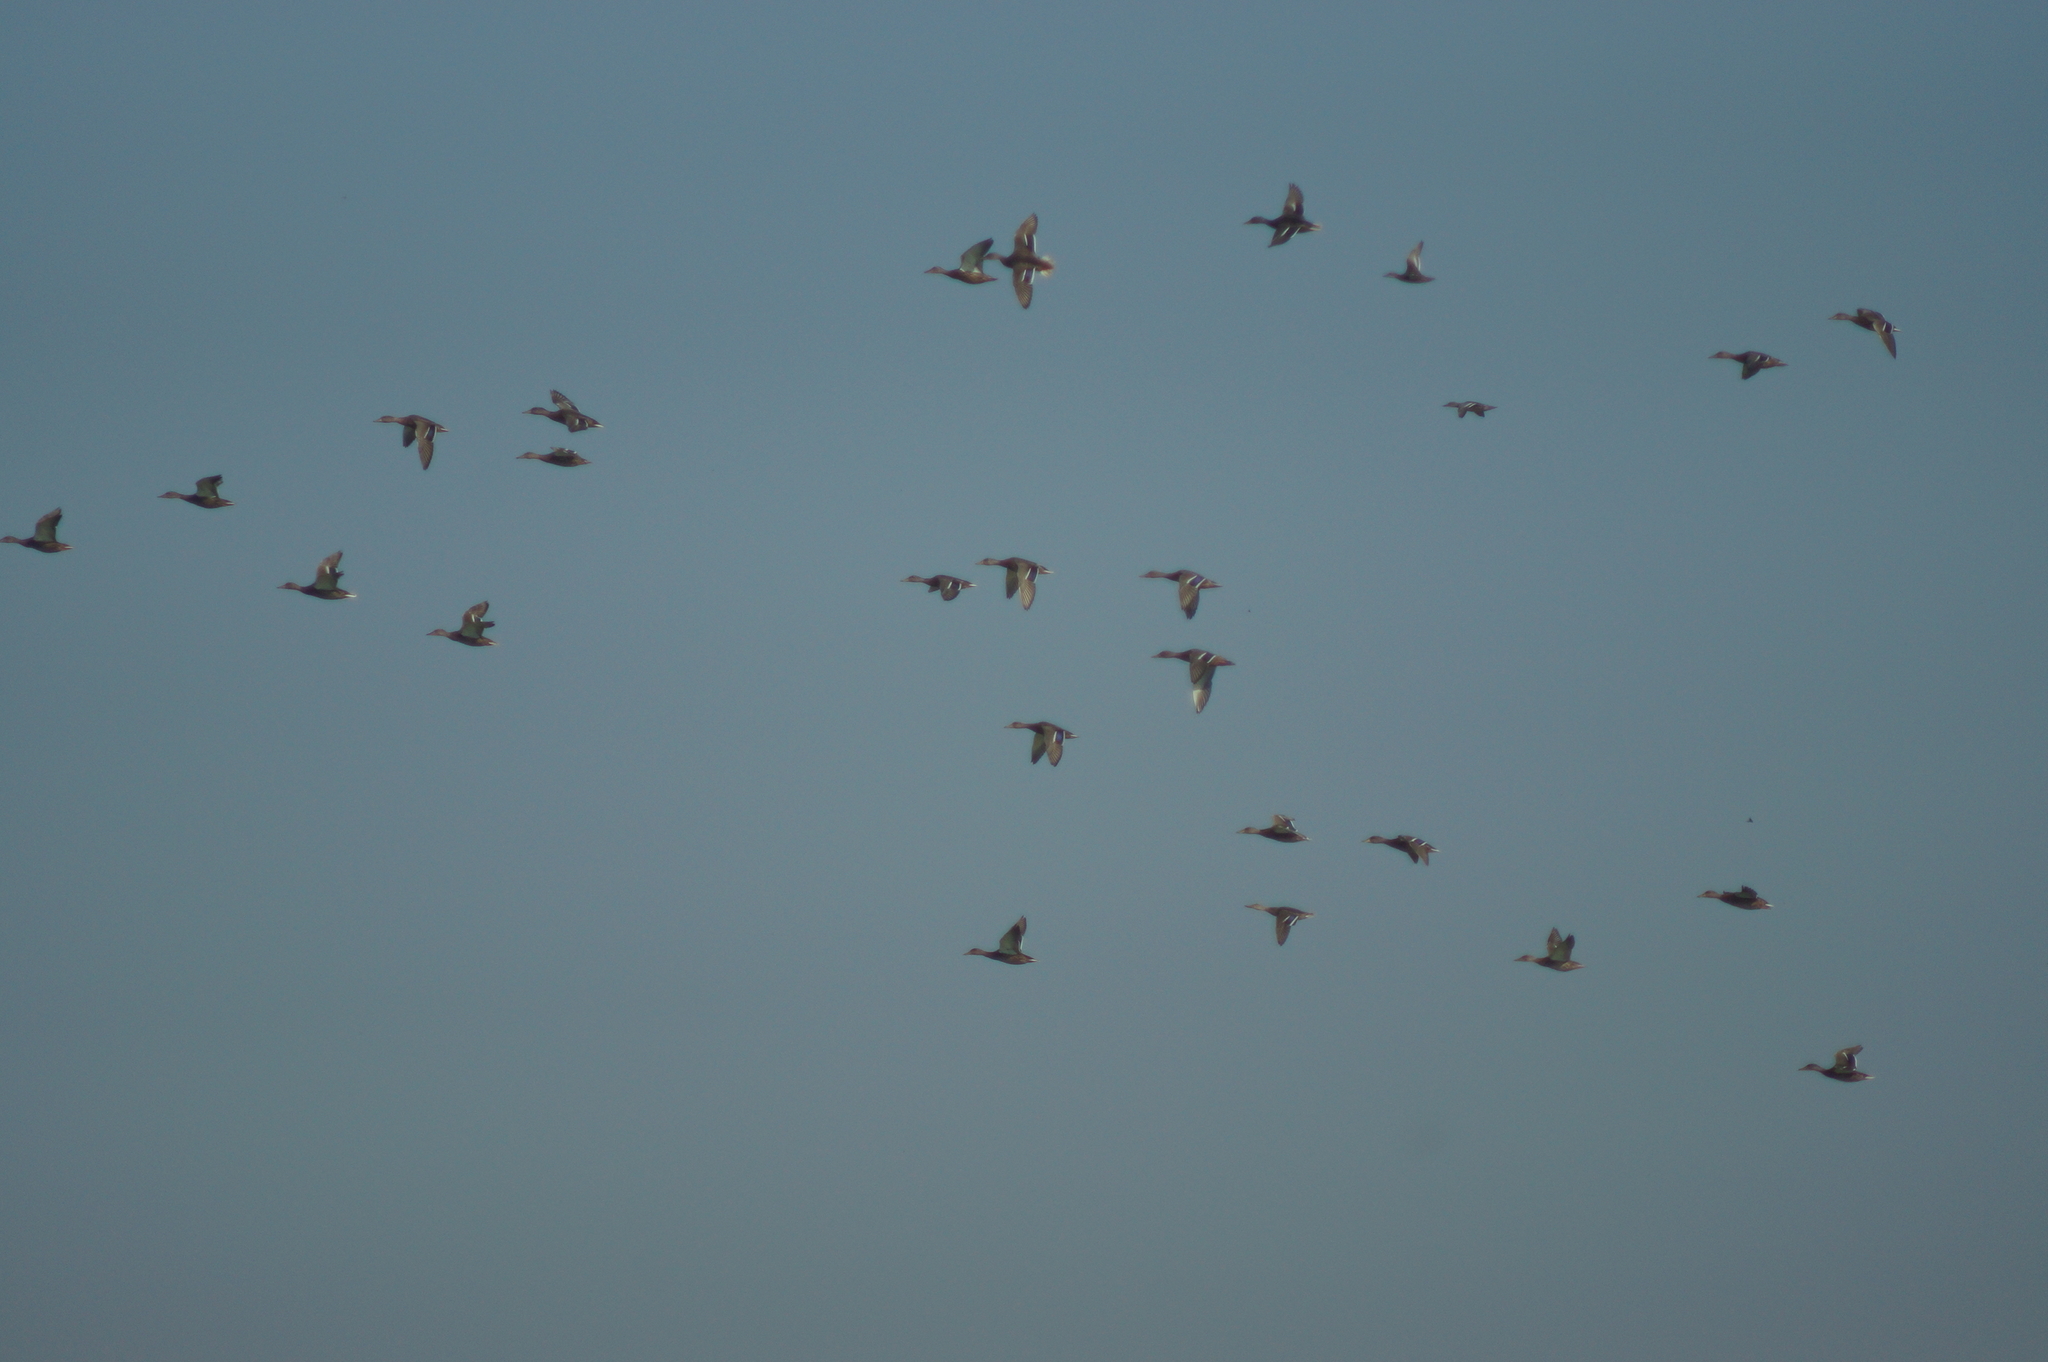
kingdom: Animalia
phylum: Chordata
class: Aves
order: Anseriformes
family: Anatidae
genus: Anas
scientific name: Anas platyrhynchos
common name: Mallard
